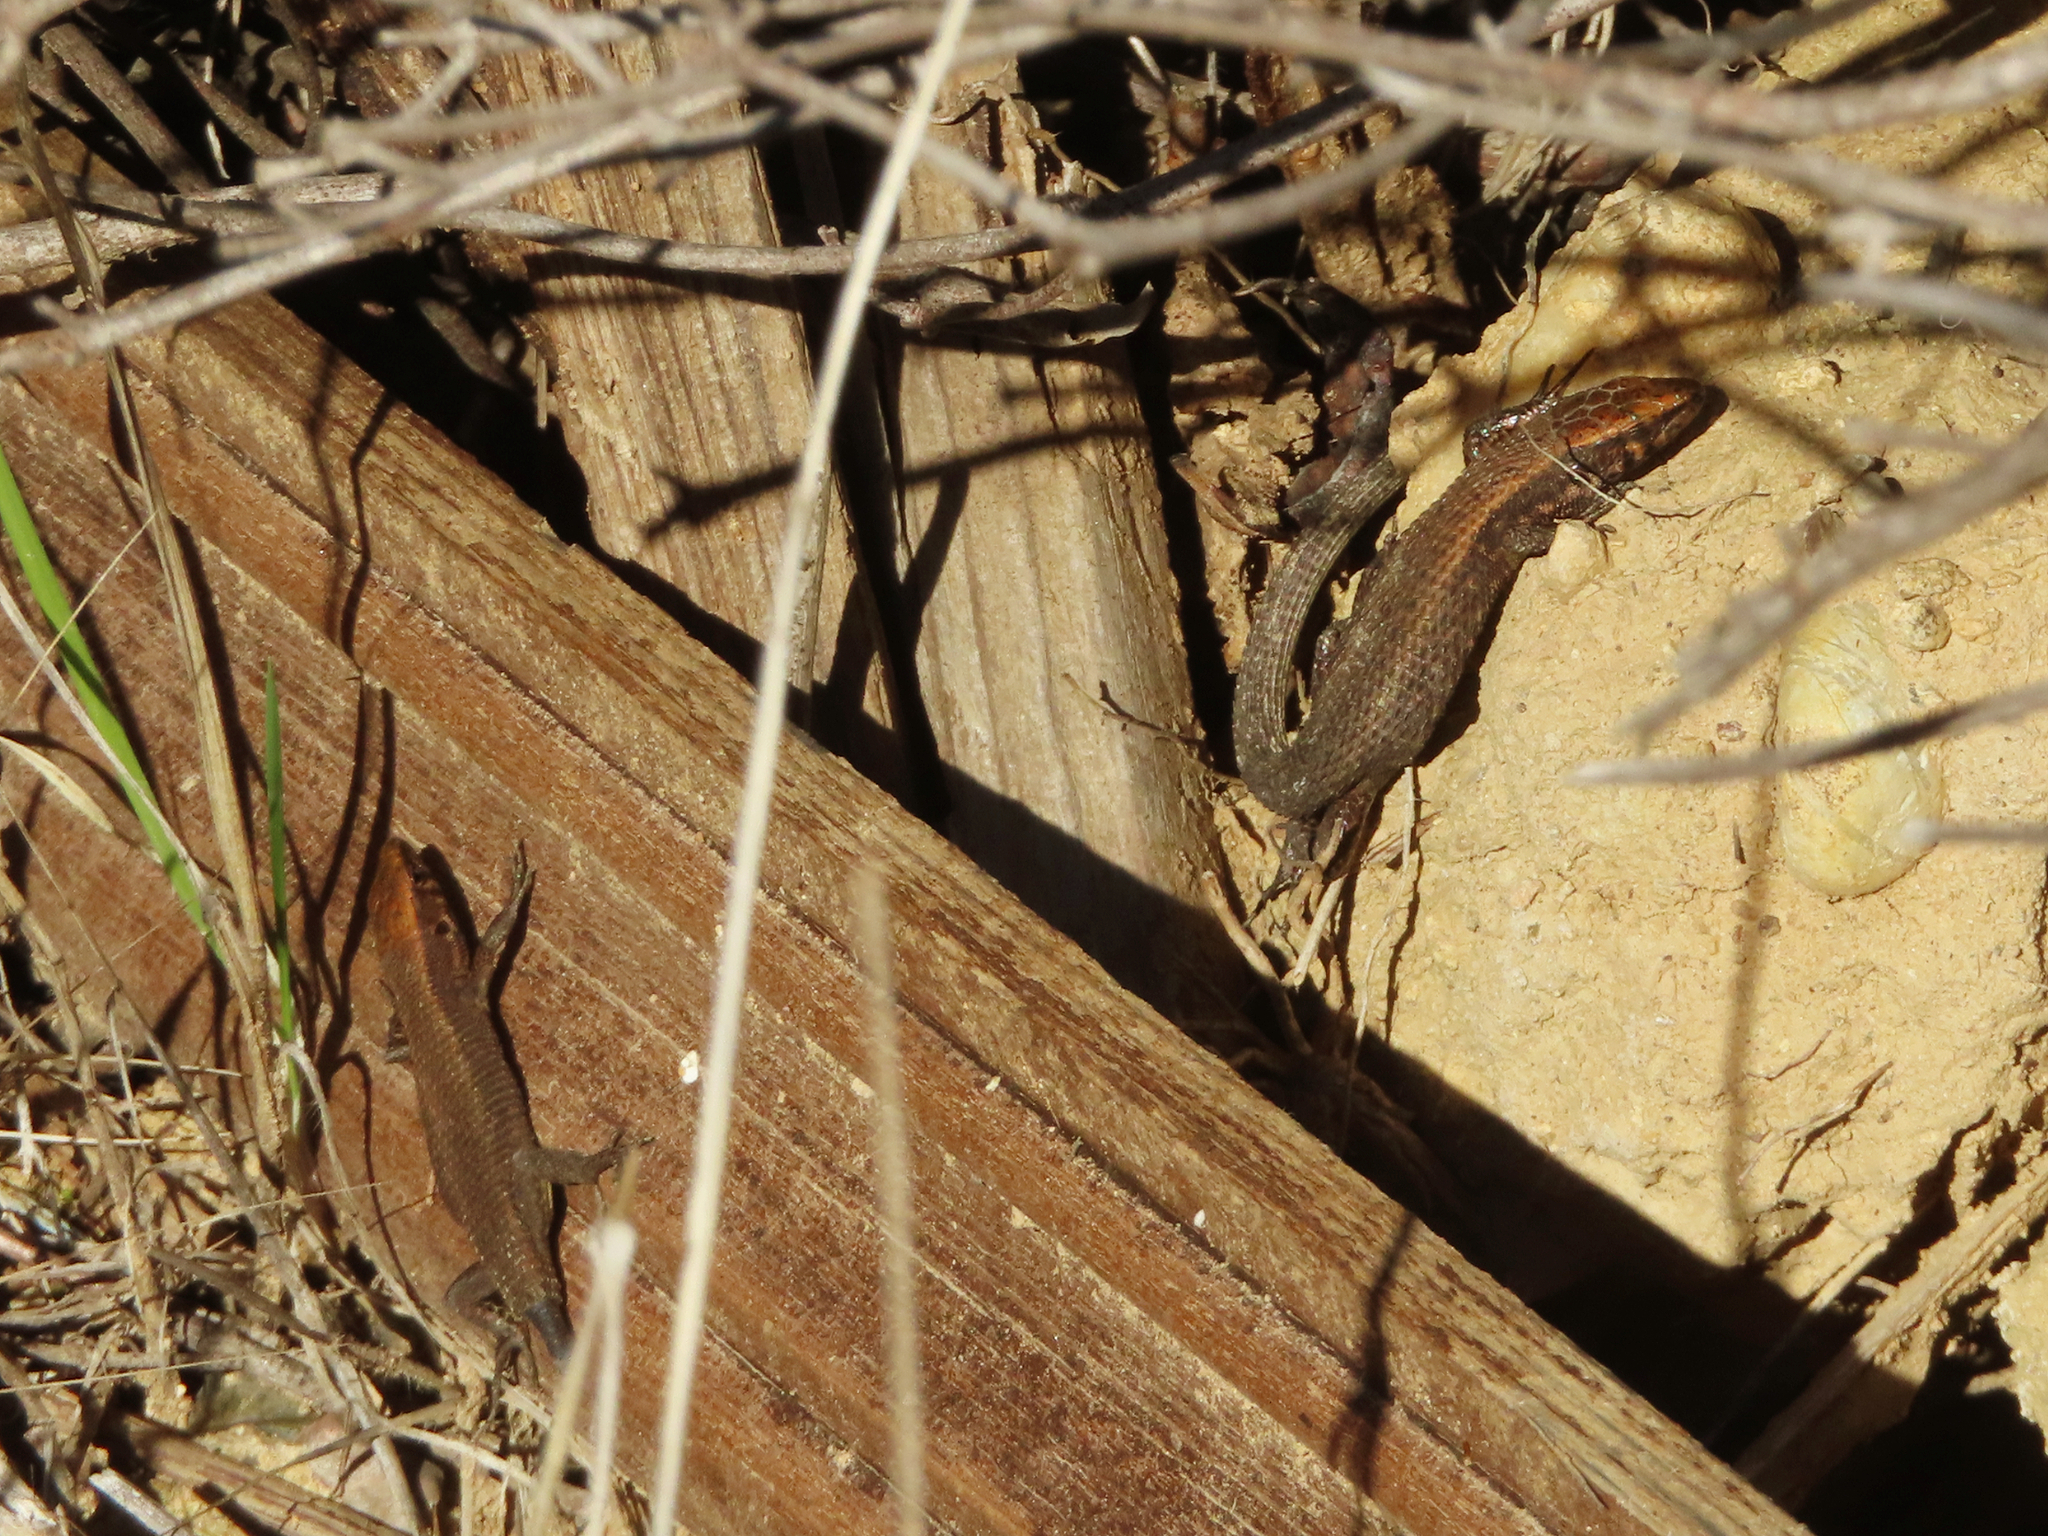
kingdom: Animalia
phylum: Chordata
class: Squamata
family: Lacertidae
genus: Algyroides
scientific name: Algyroides moreoticus
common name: Greek algyroides
